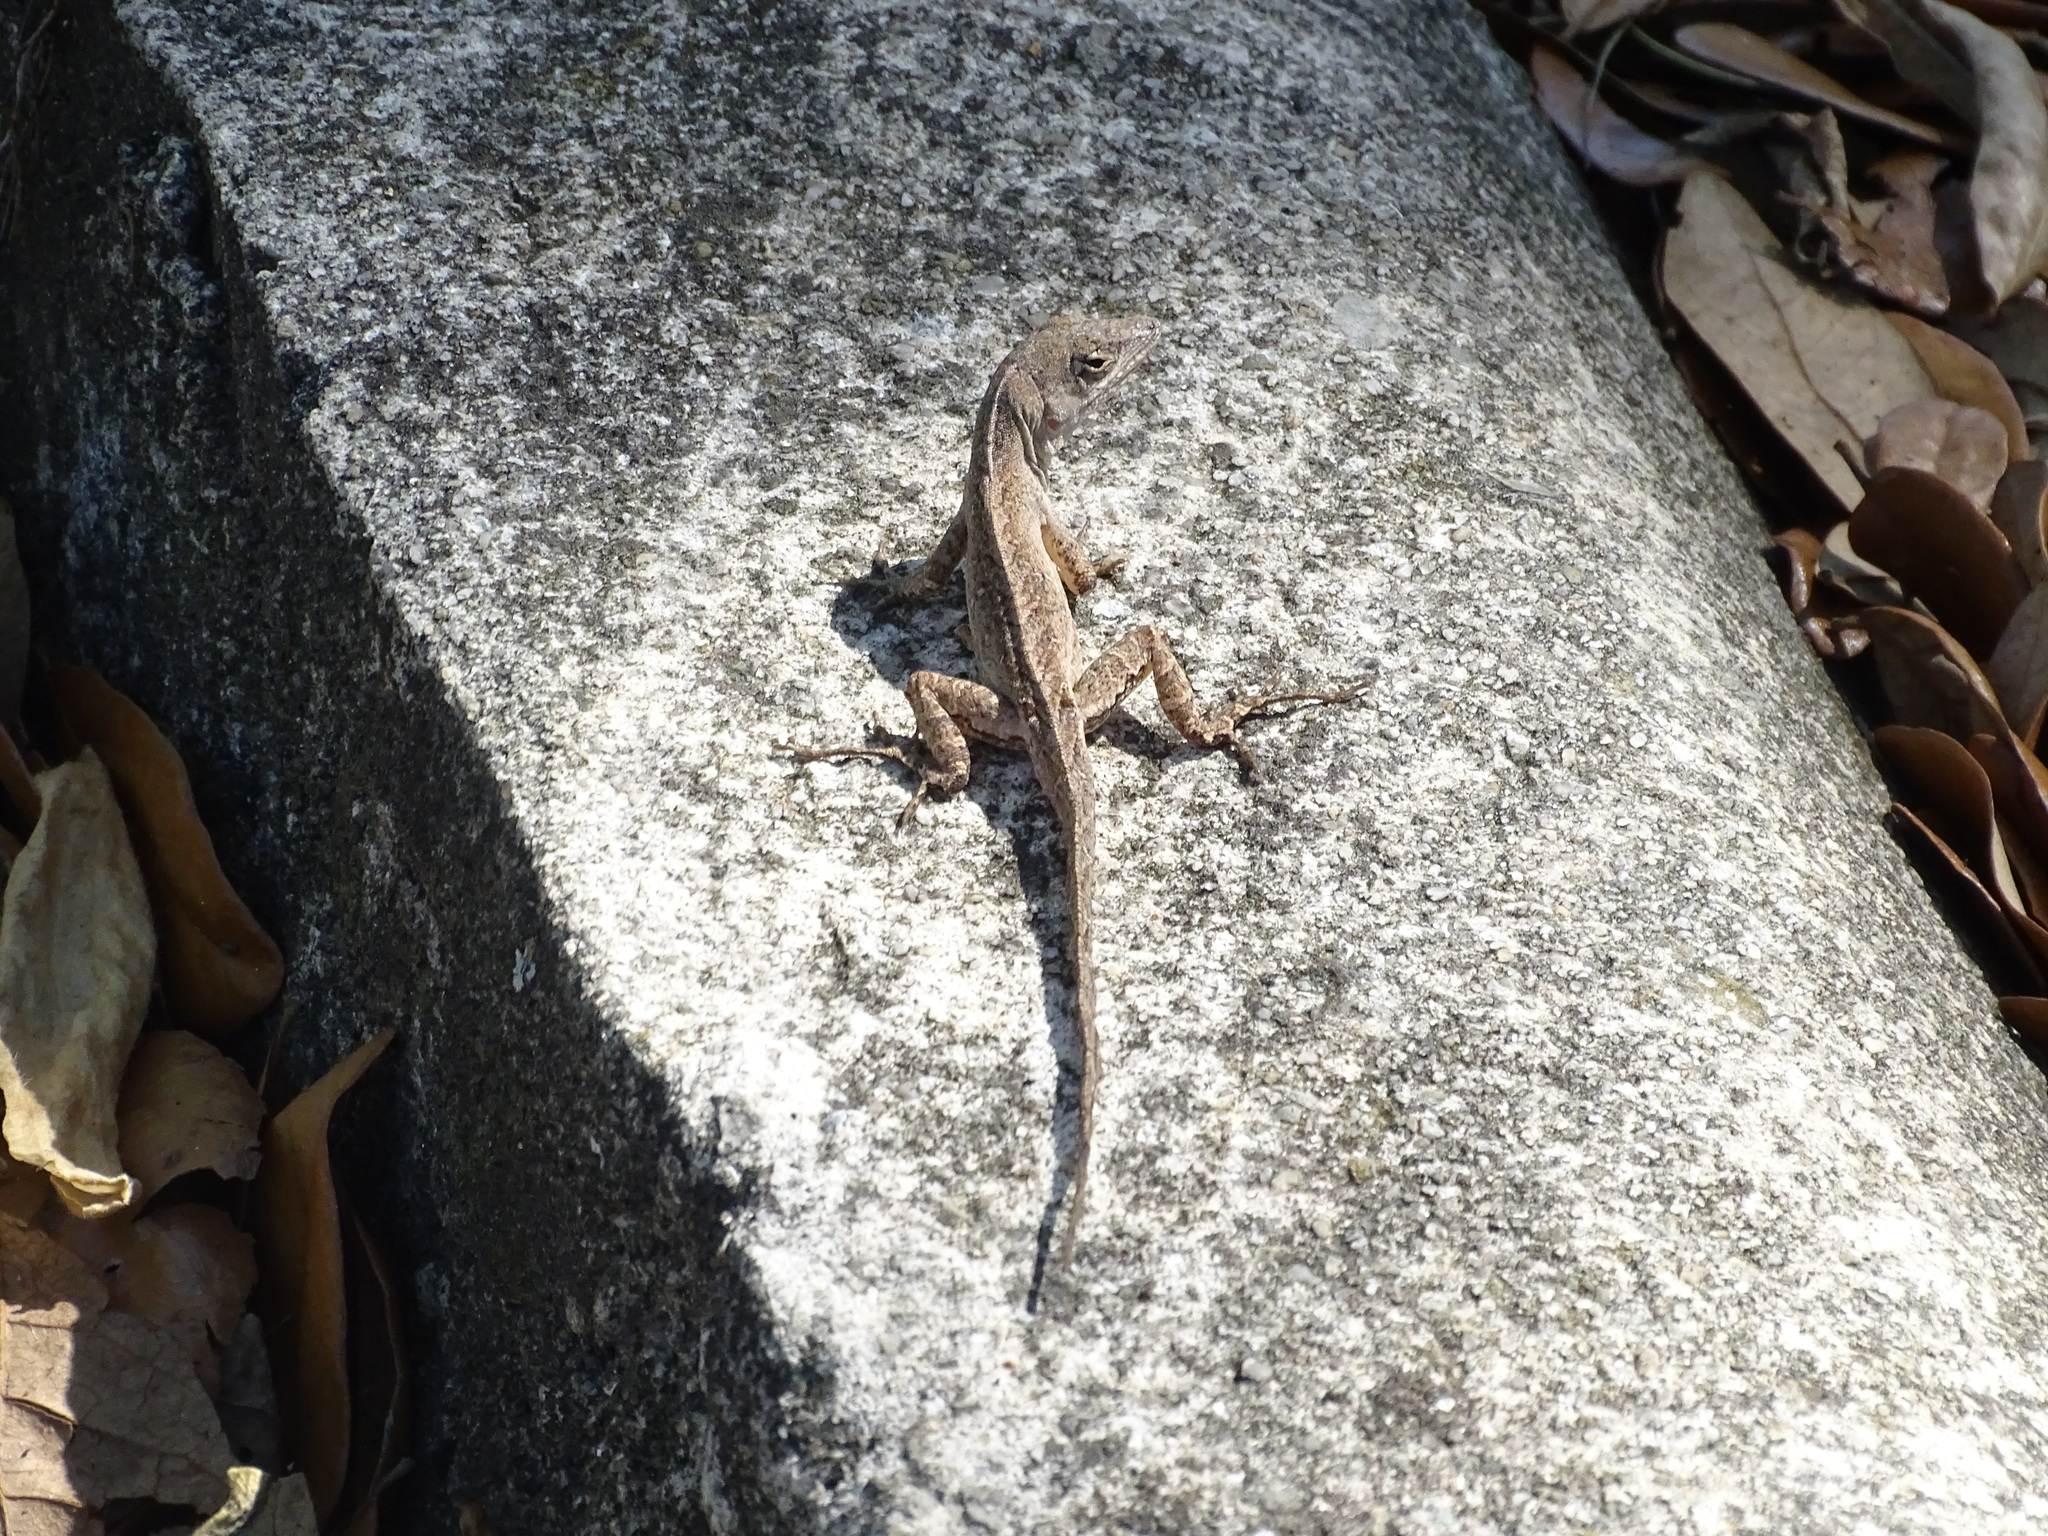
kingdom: Animalia
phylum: Chordata
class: Squamata
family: Dactyloidae
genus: Anolis
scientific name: Anolis sagrei
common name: Brown anole
